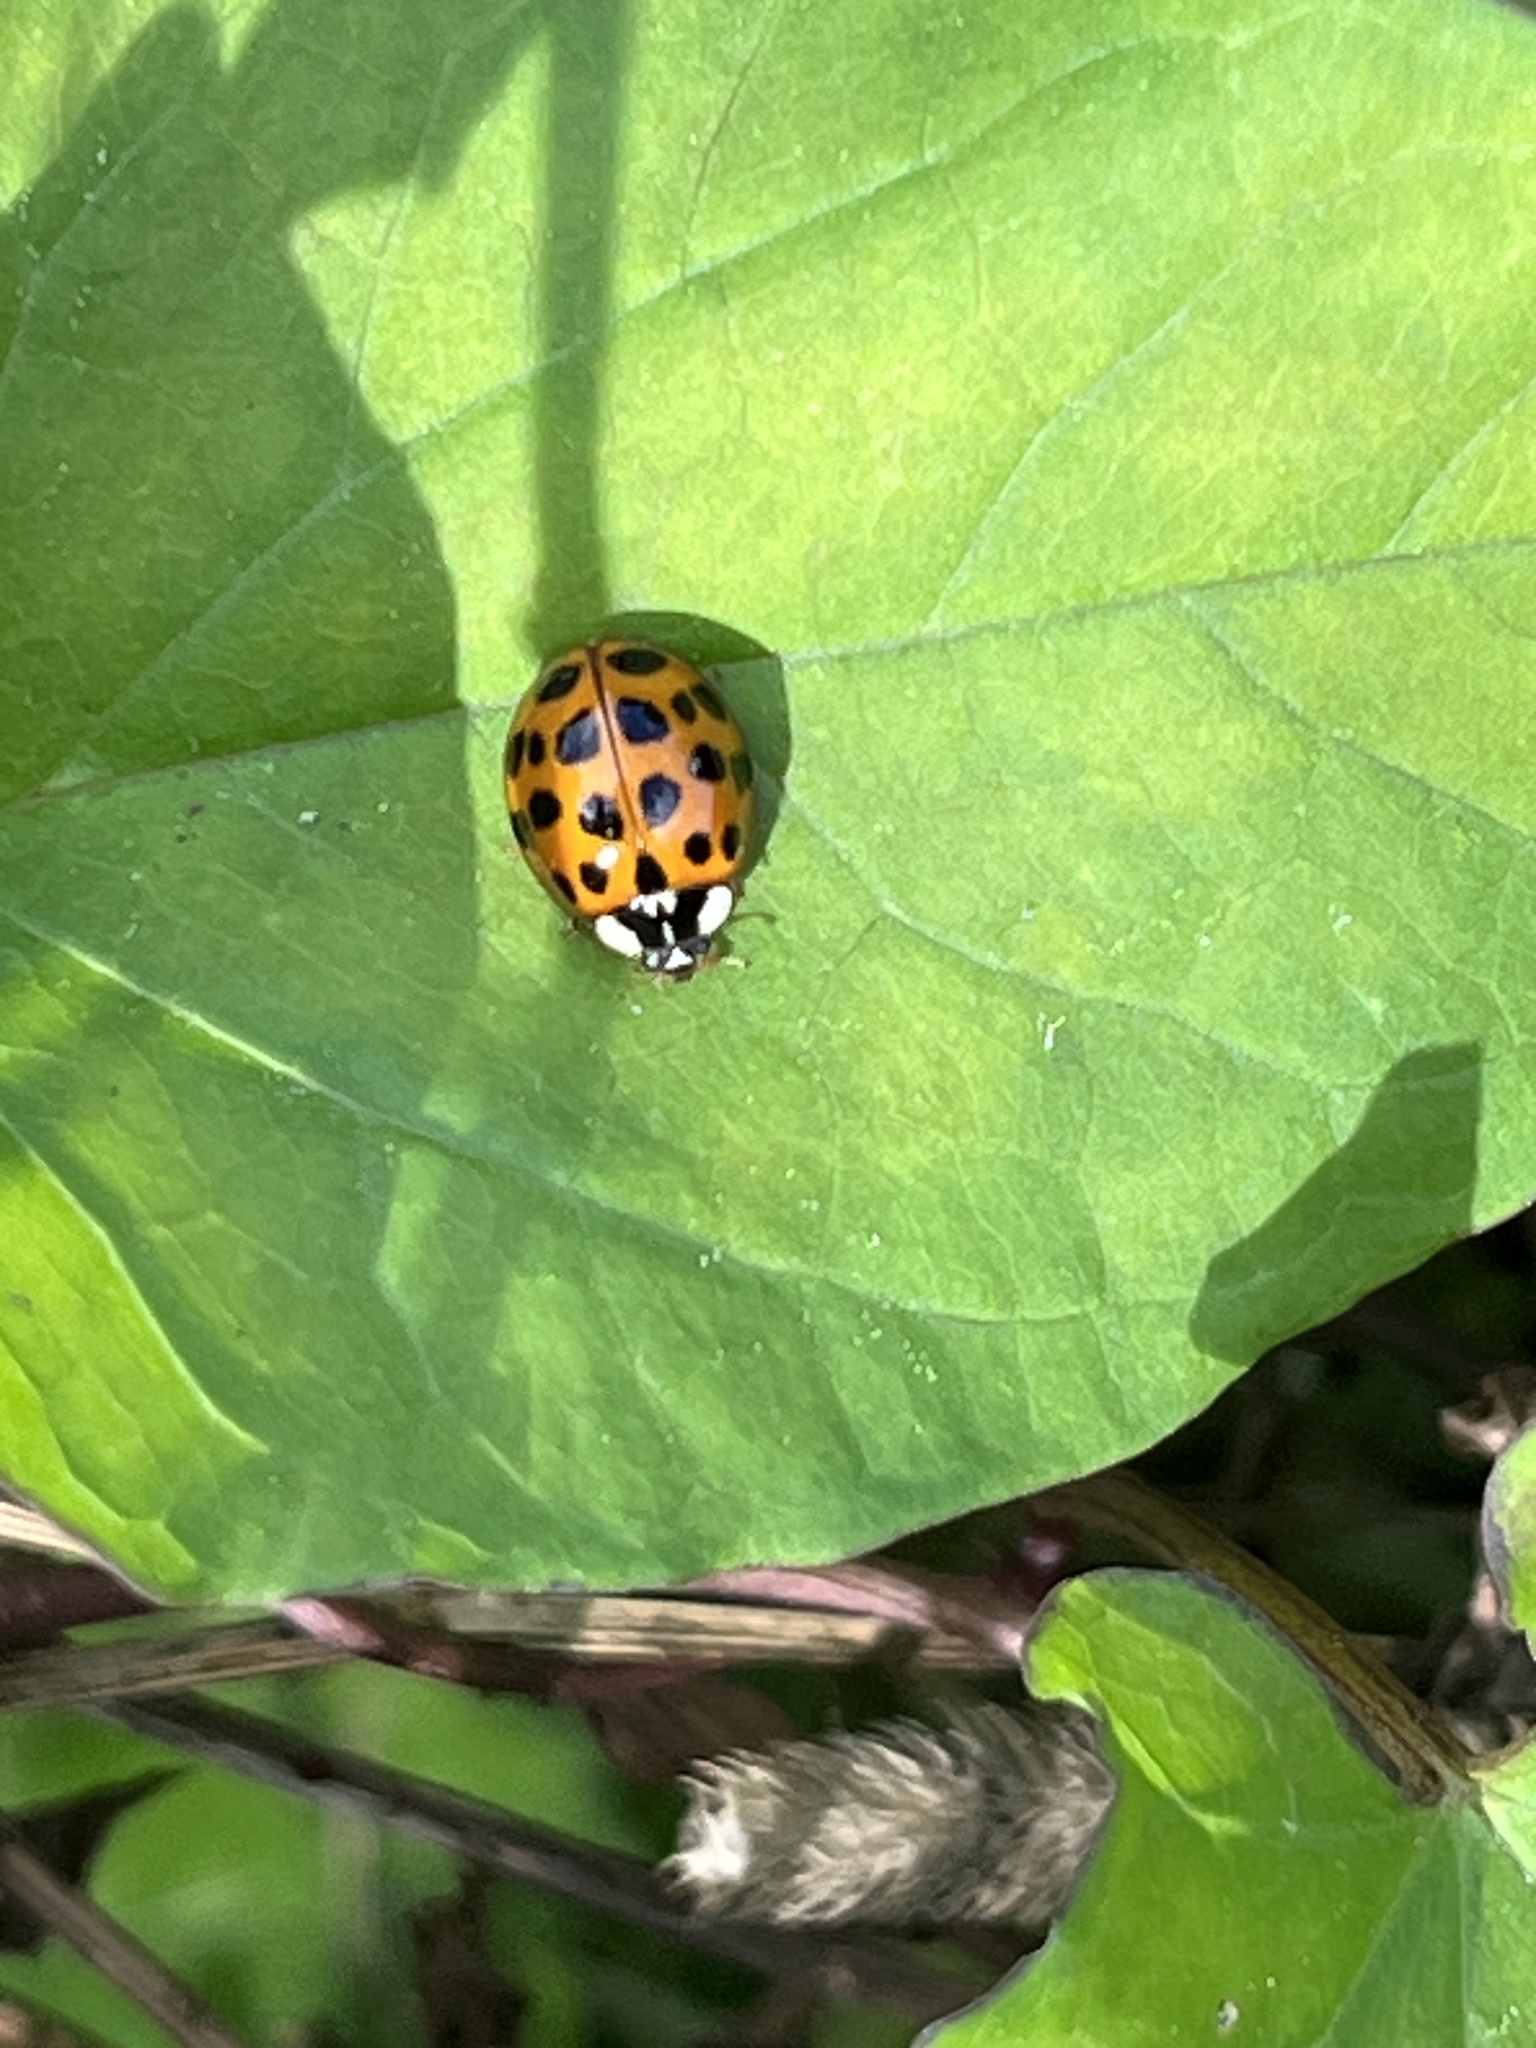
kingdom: Animalia
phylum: Arthropoda
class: Insecta
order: Coleoptera
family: Coccinellidae
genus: Harmonia
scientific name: Harmonia axyridis
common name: Harlequin ladybird
